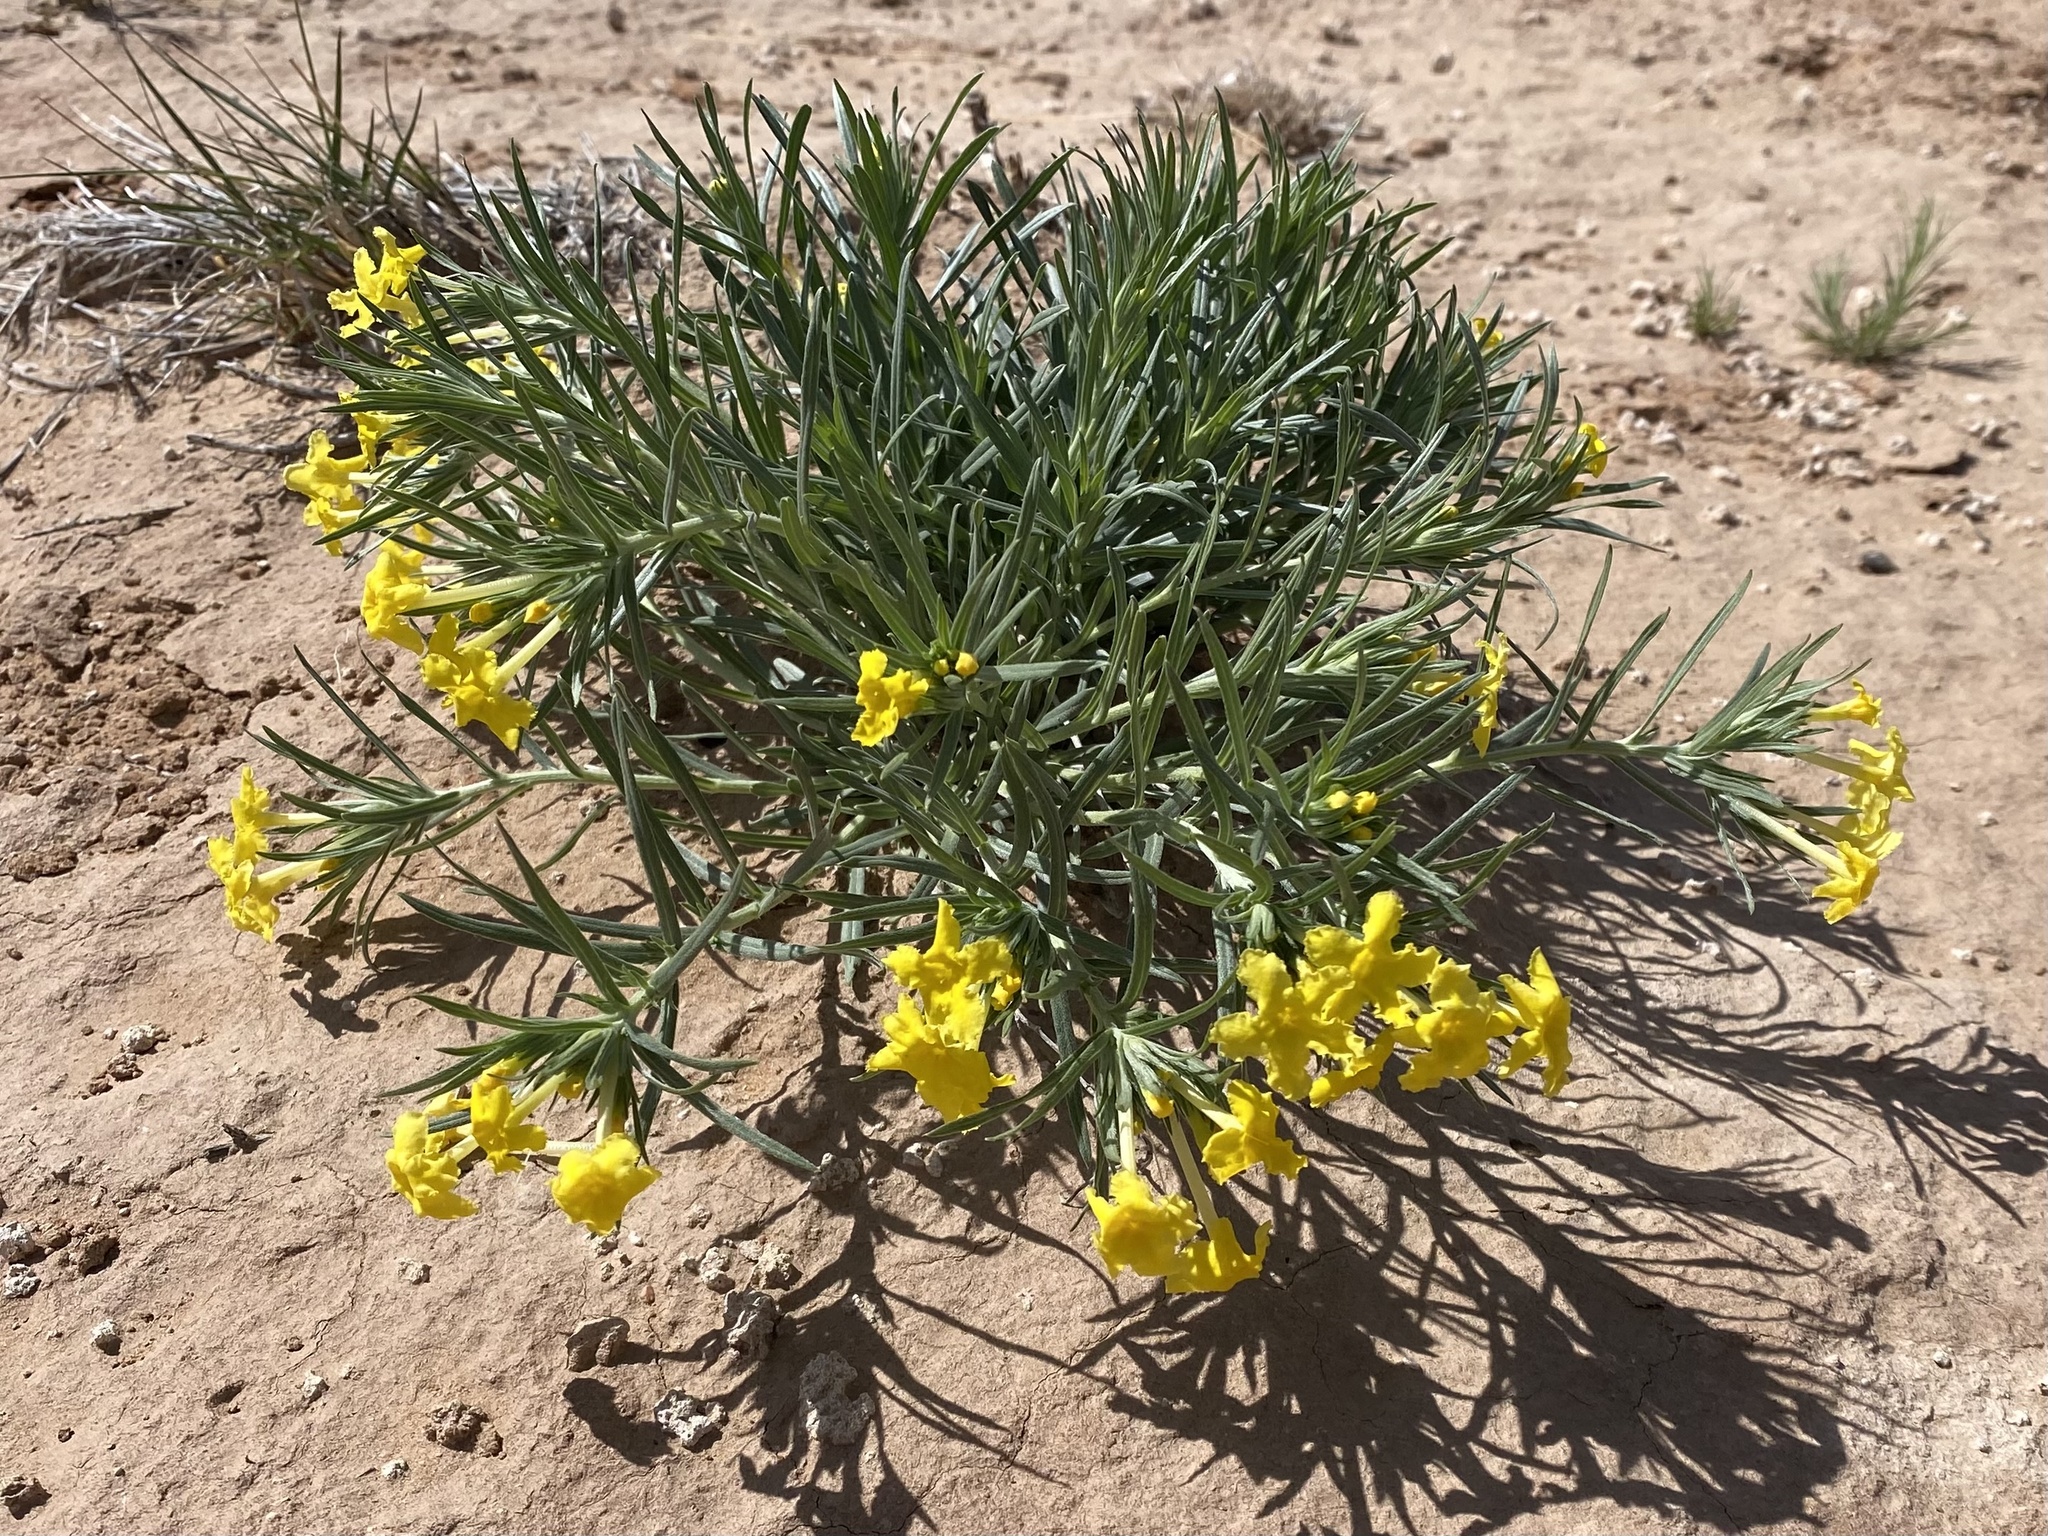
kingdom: Plantae
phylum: Tracheophyta
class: Magnoliopsida
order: Boraginales
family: Boraginaceae
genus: Lithospermum
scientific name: Lithospermum incisum
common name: Fringed gromwell
